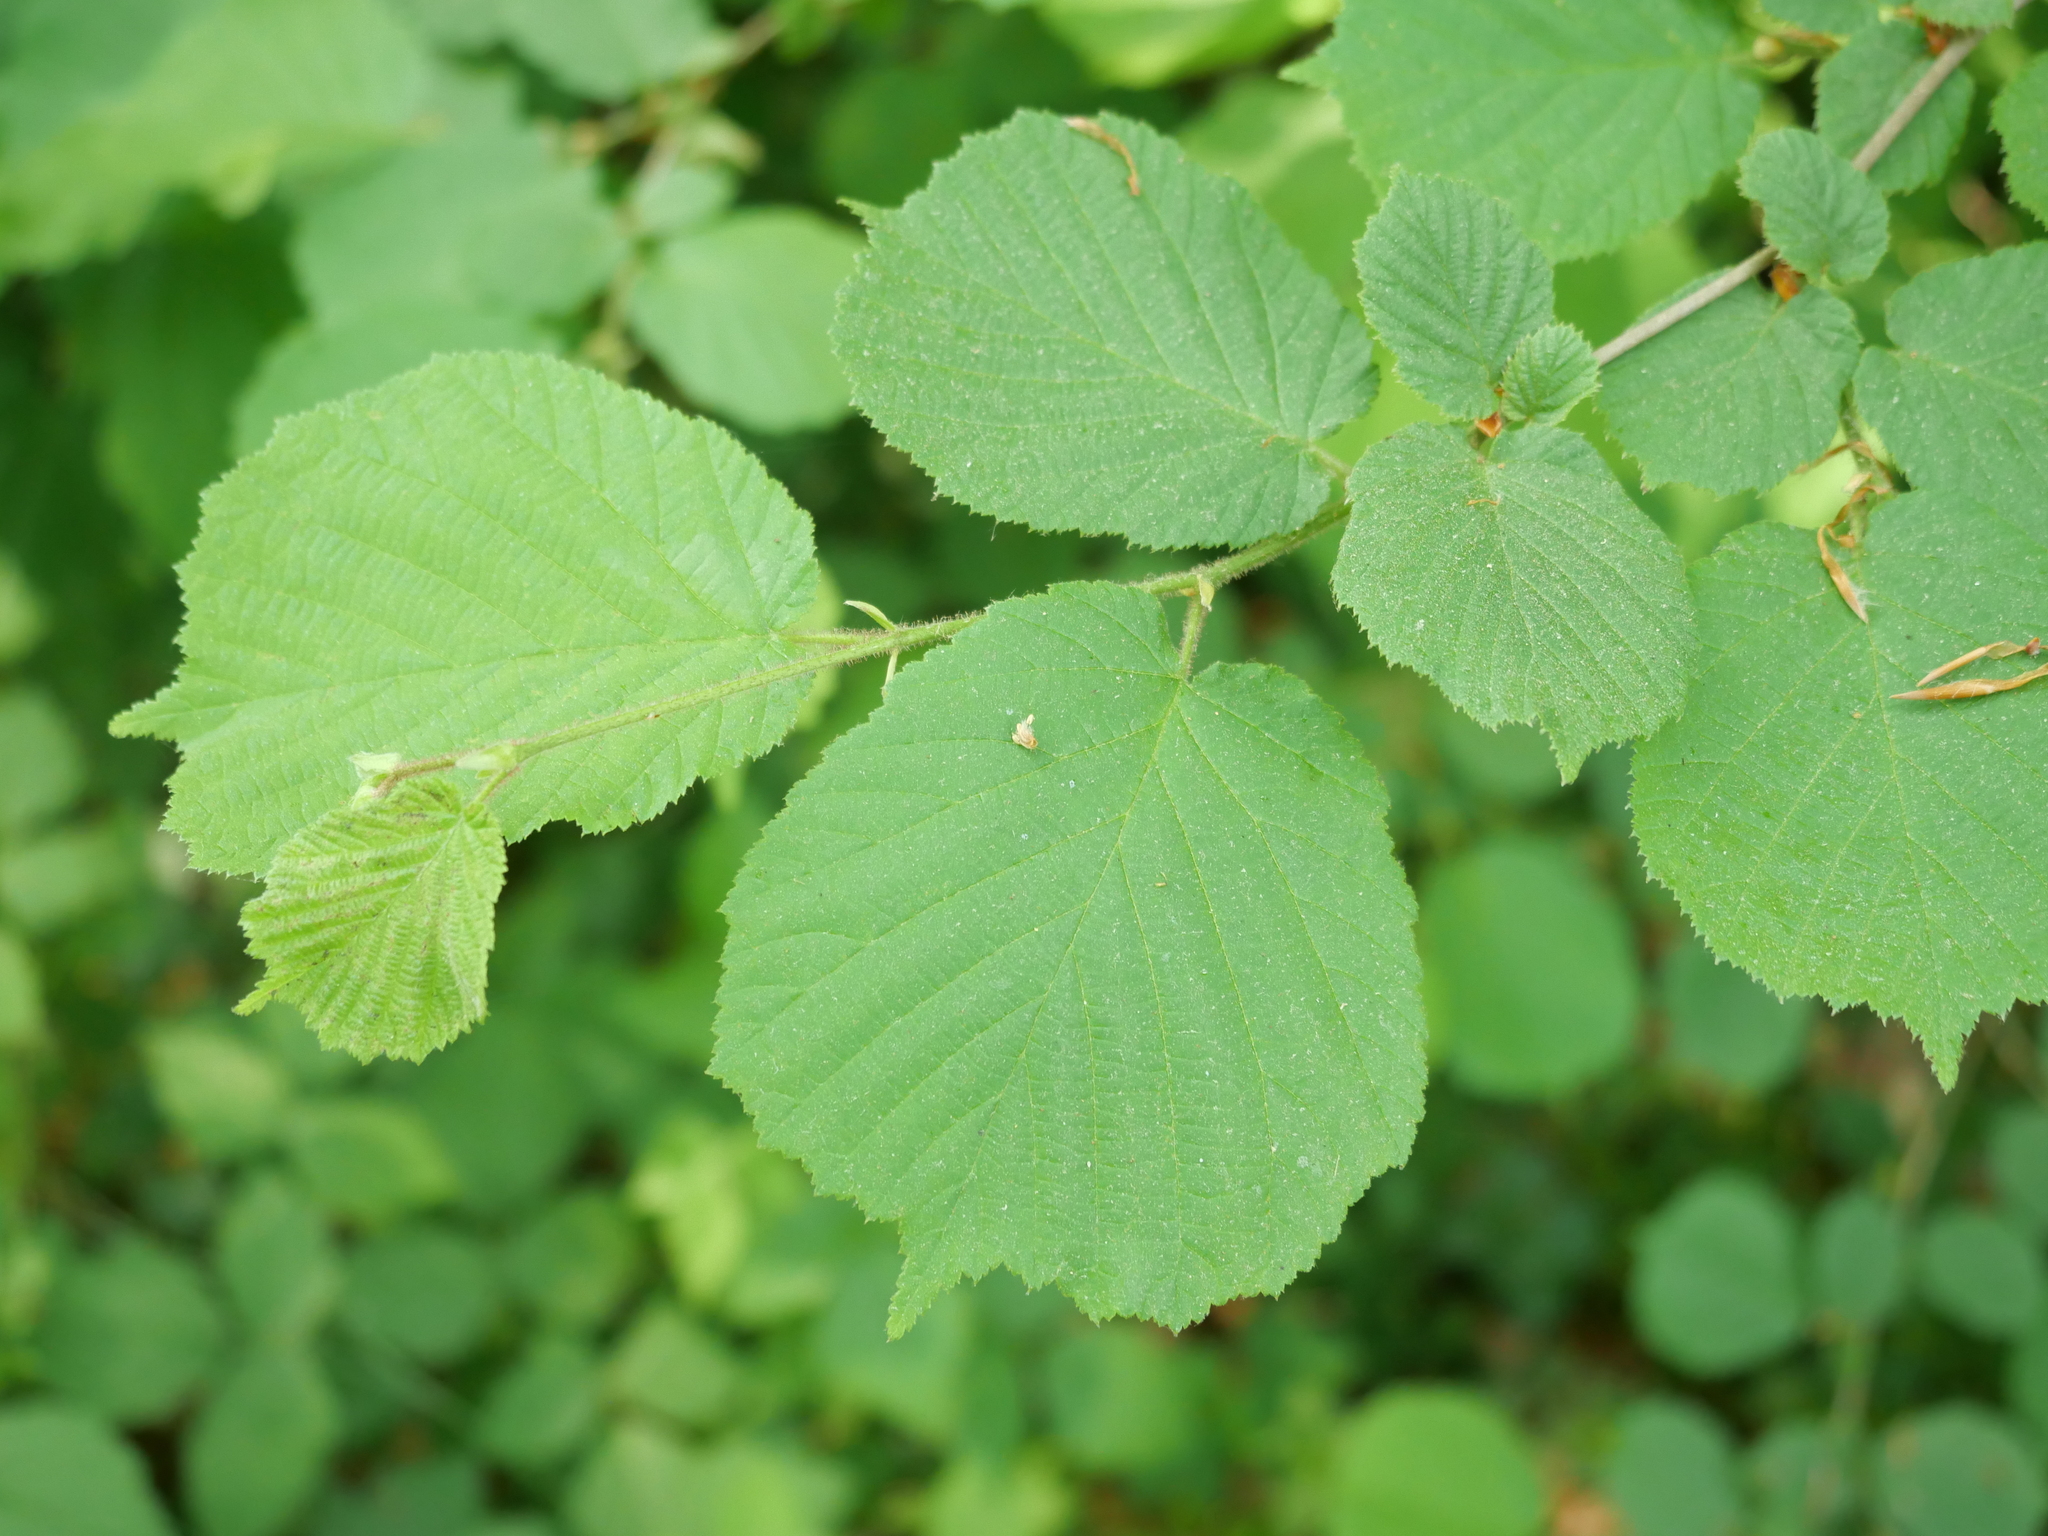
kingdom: Plantae
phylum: Tracheophyta
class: Magnoliopsida
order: Fagales
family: Betulaceae
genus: Corylus
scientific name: Corylus avellana
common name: European hazel
